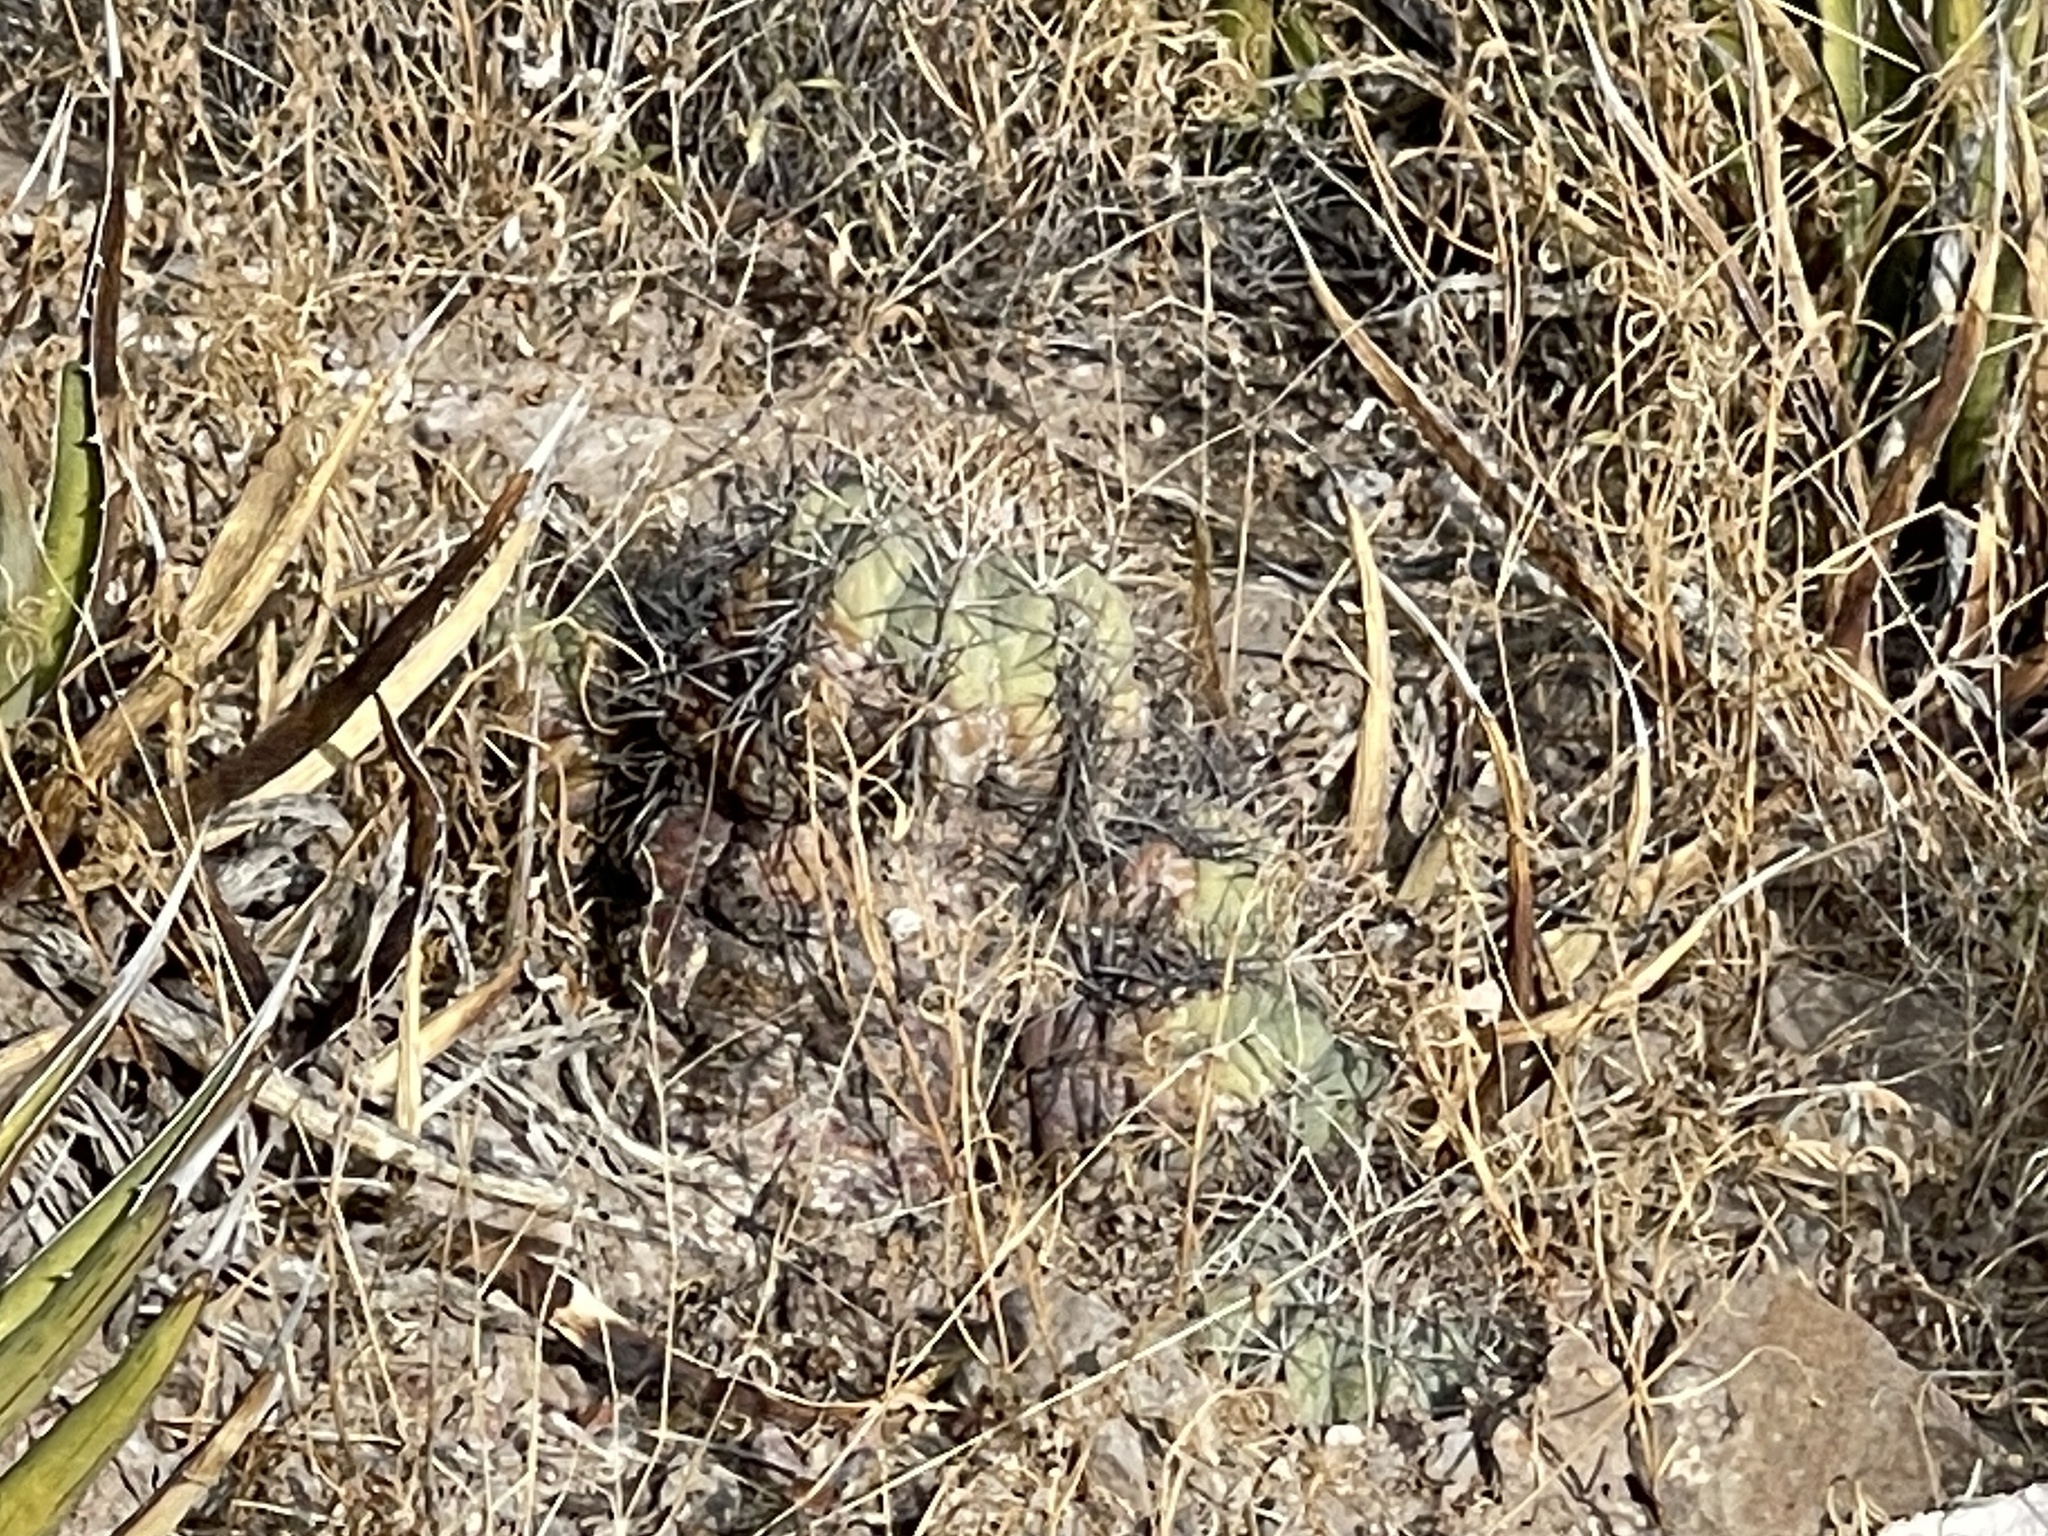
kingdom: Plantae
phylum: Tracheophyta
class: Magnoliopsida
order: Caryophyllales
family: Cactaceae
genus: Echinocactus
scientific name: Echinocactus horizonthalonius
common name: Devilshead
